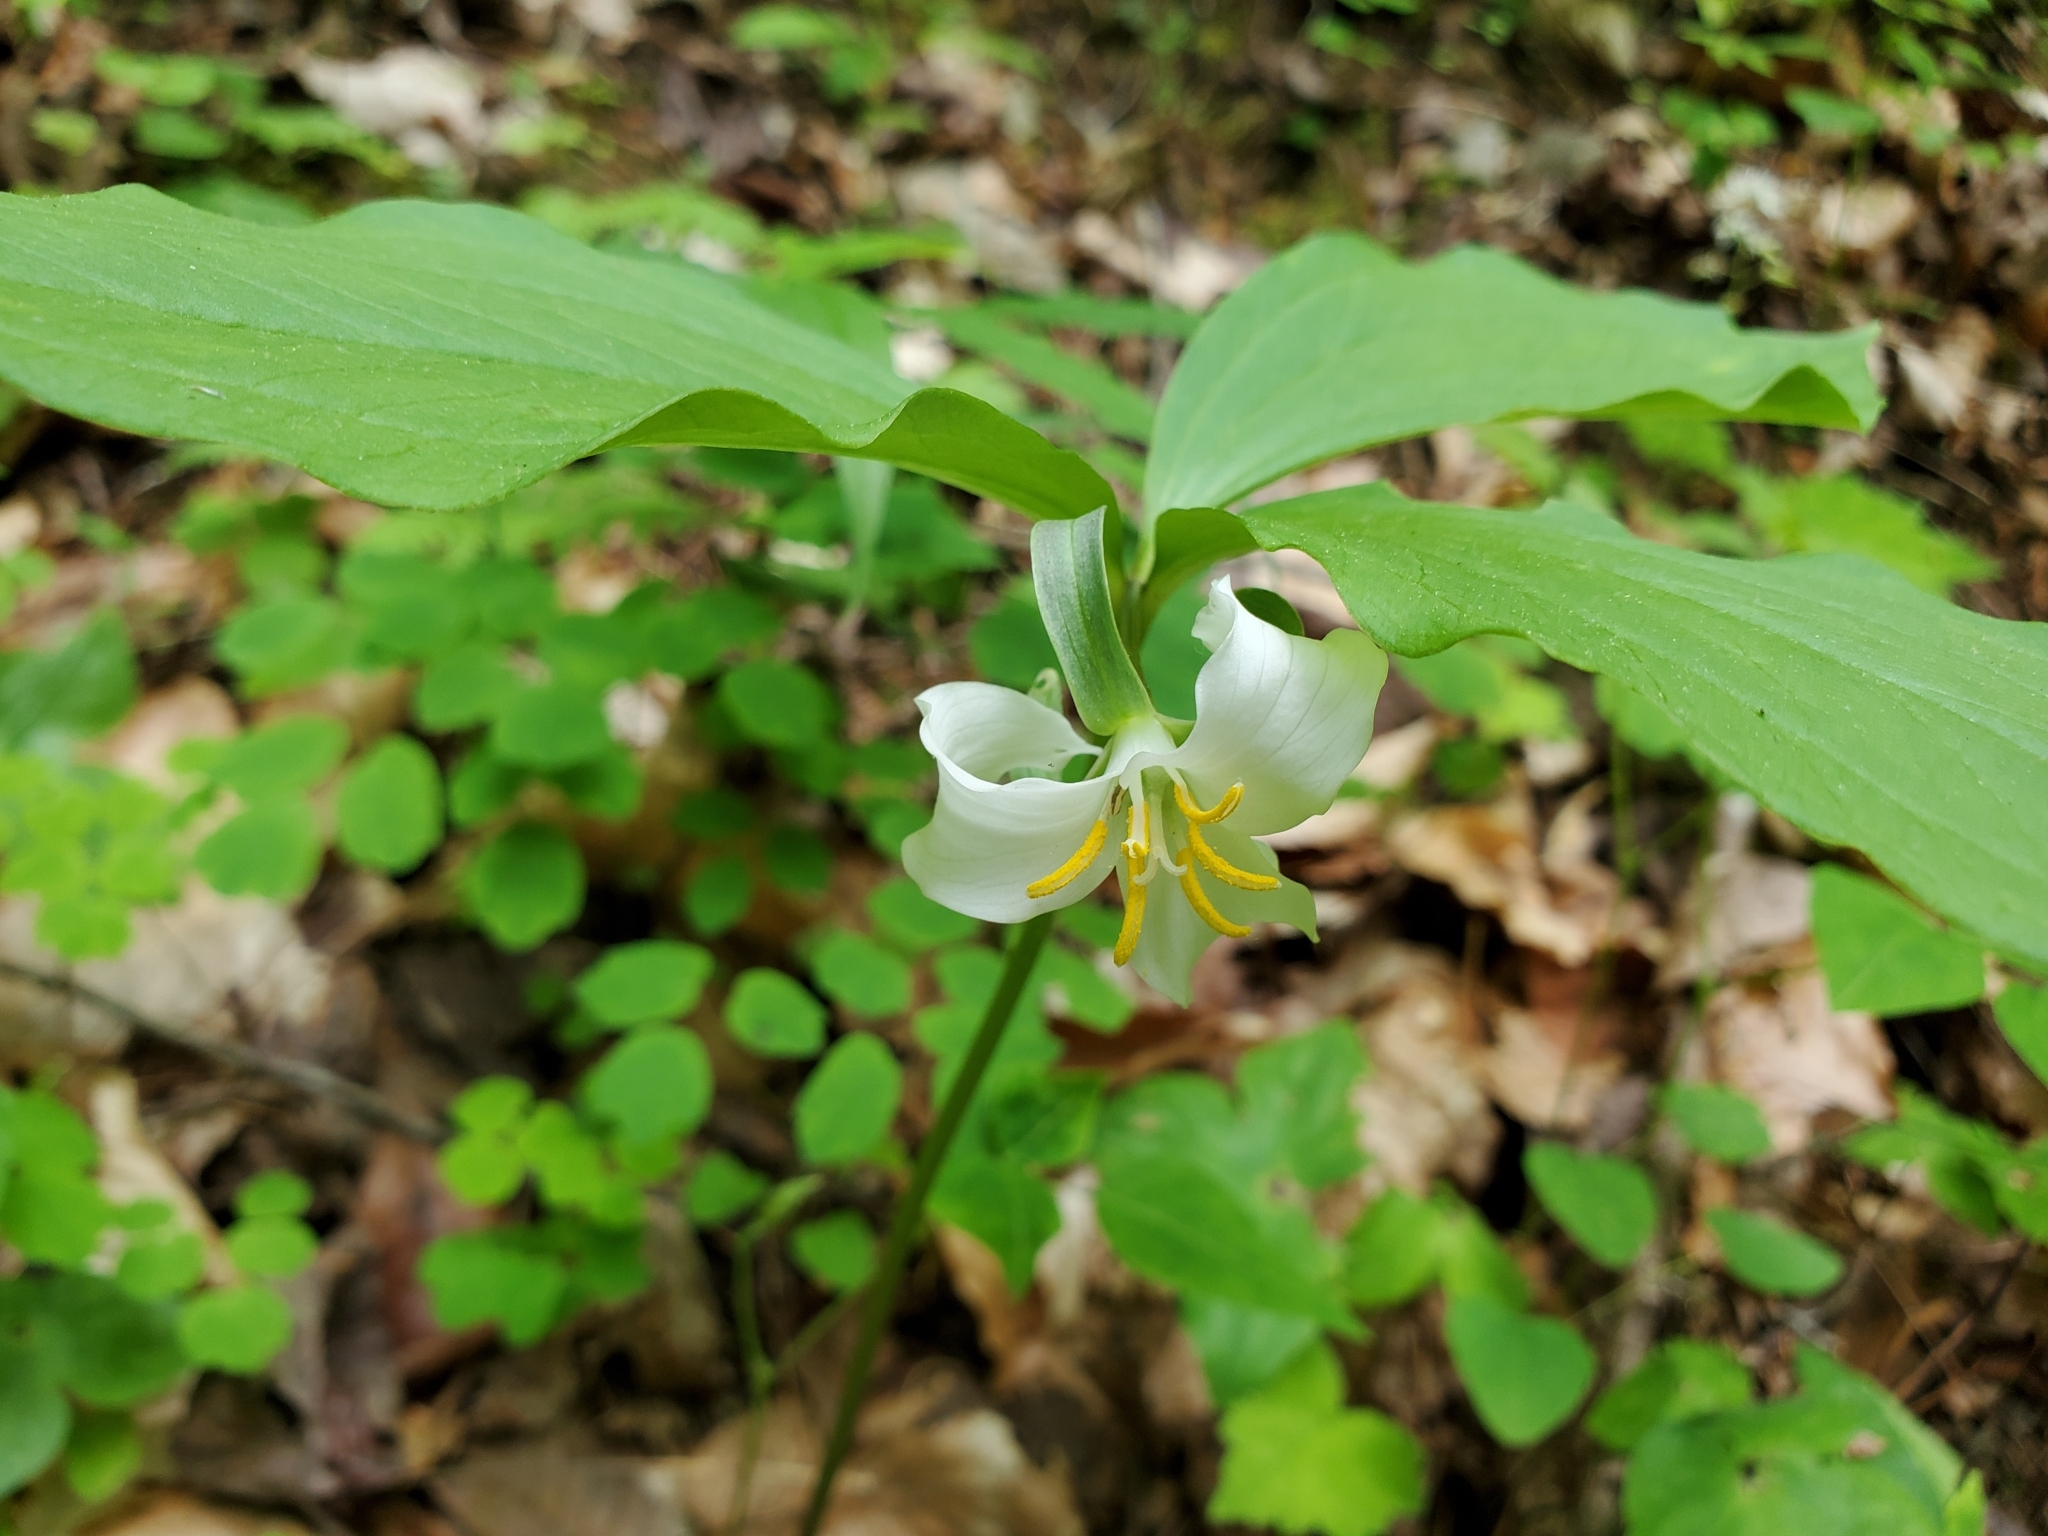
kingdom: Plantae
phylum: Tracheophyta
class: Liliopsida
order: Liliales
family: Melanthiaceae
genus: Trillium
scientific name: Trillium catesbaei
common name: Bashful trillium
